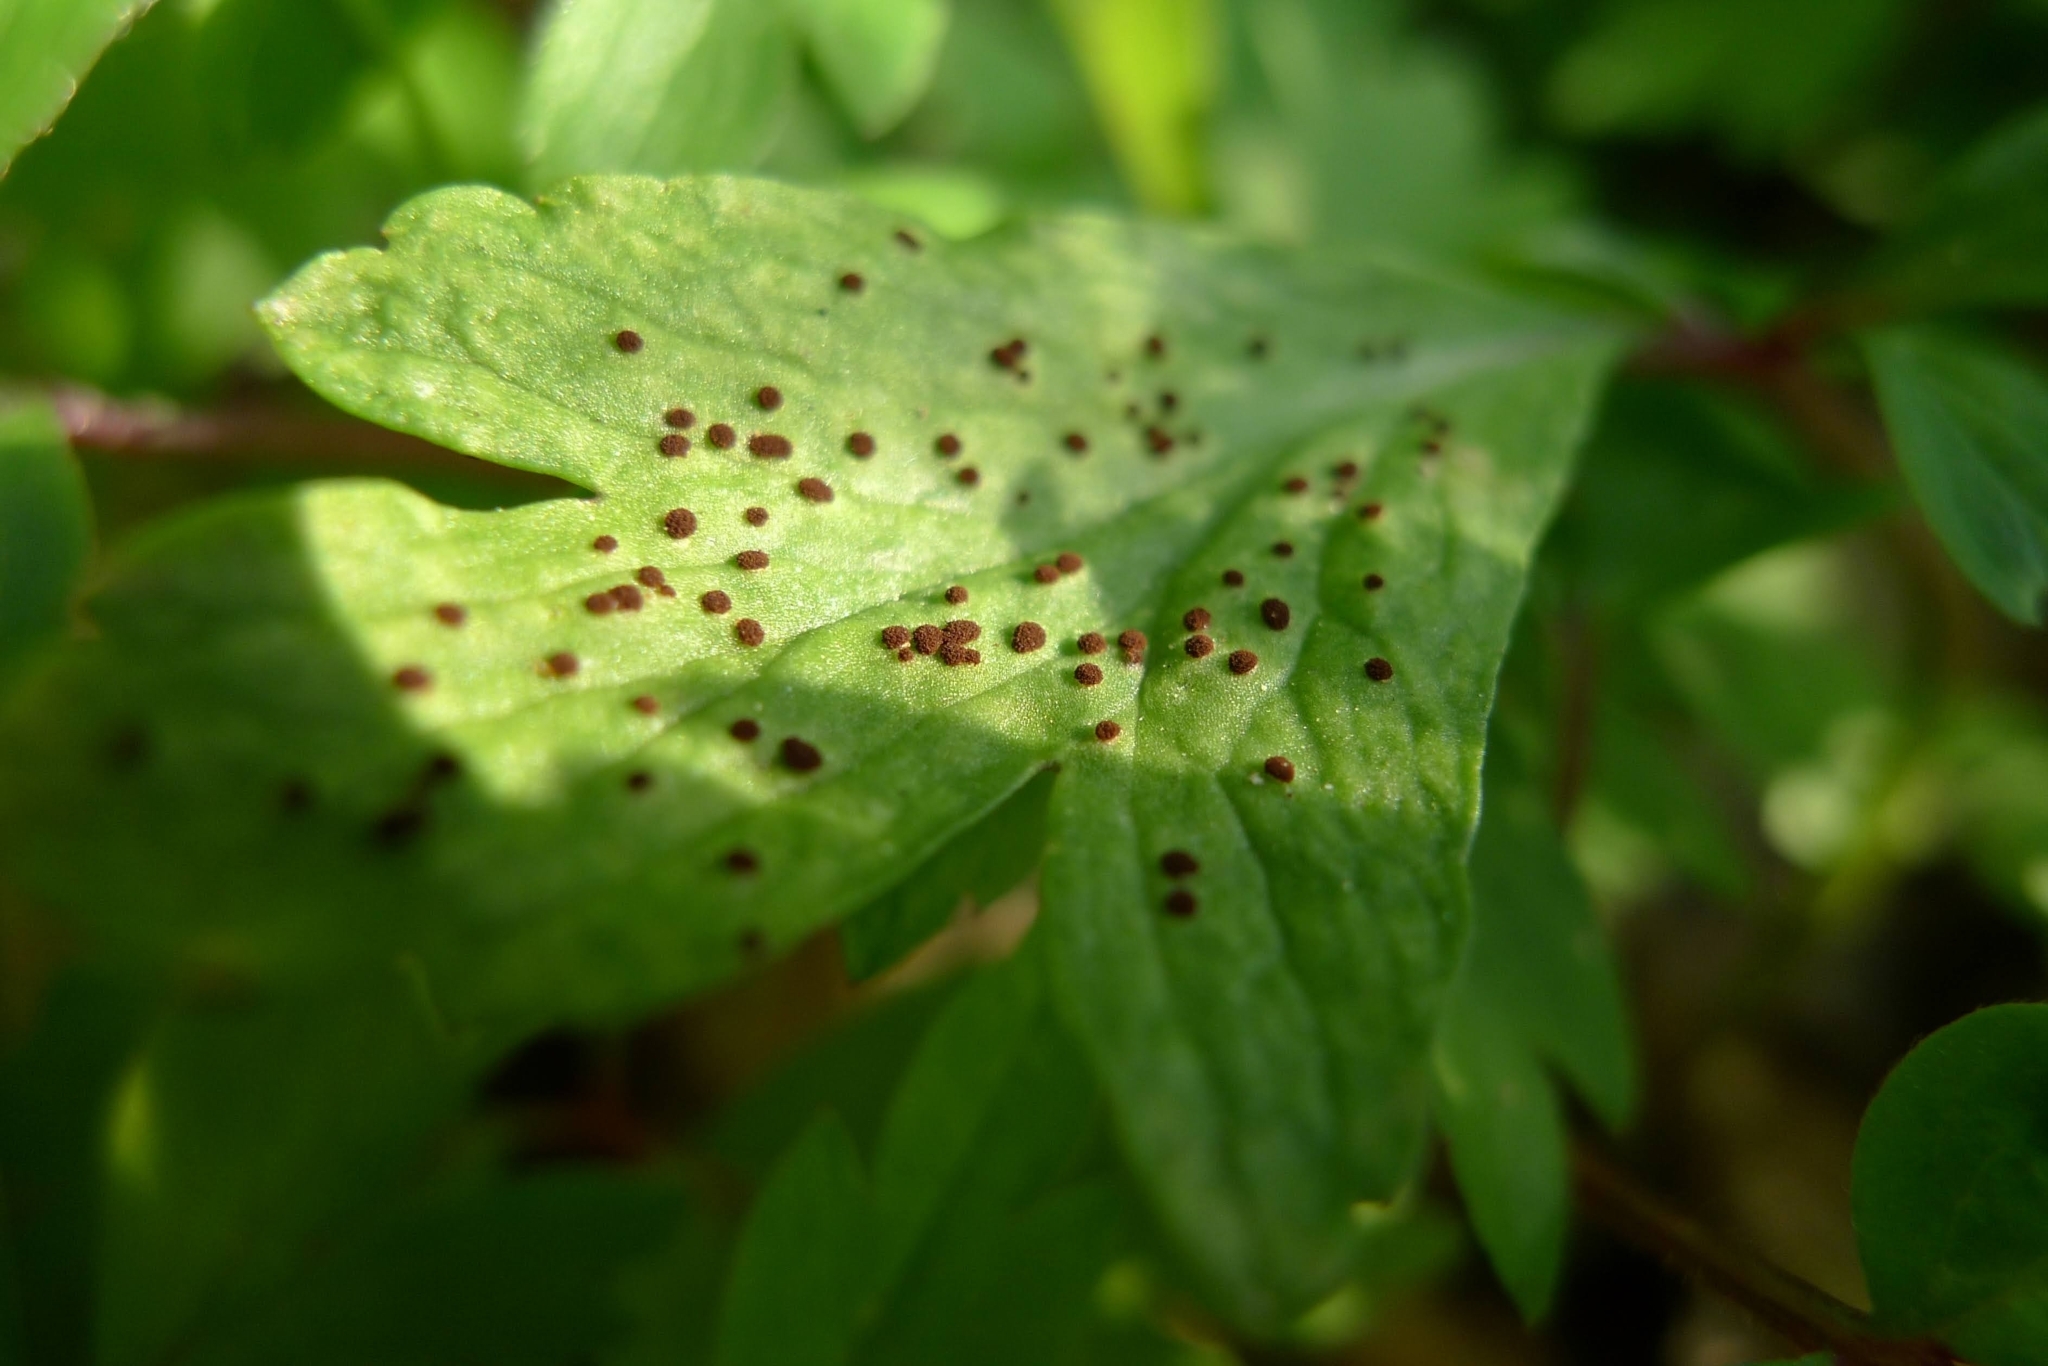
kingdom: Fungi
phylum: Basidiomycota
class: Pucciniomycetes
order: Pucciniales
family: Tranzscheliaceae
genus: Tranzschelia
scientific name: Tranzschelia anemones
